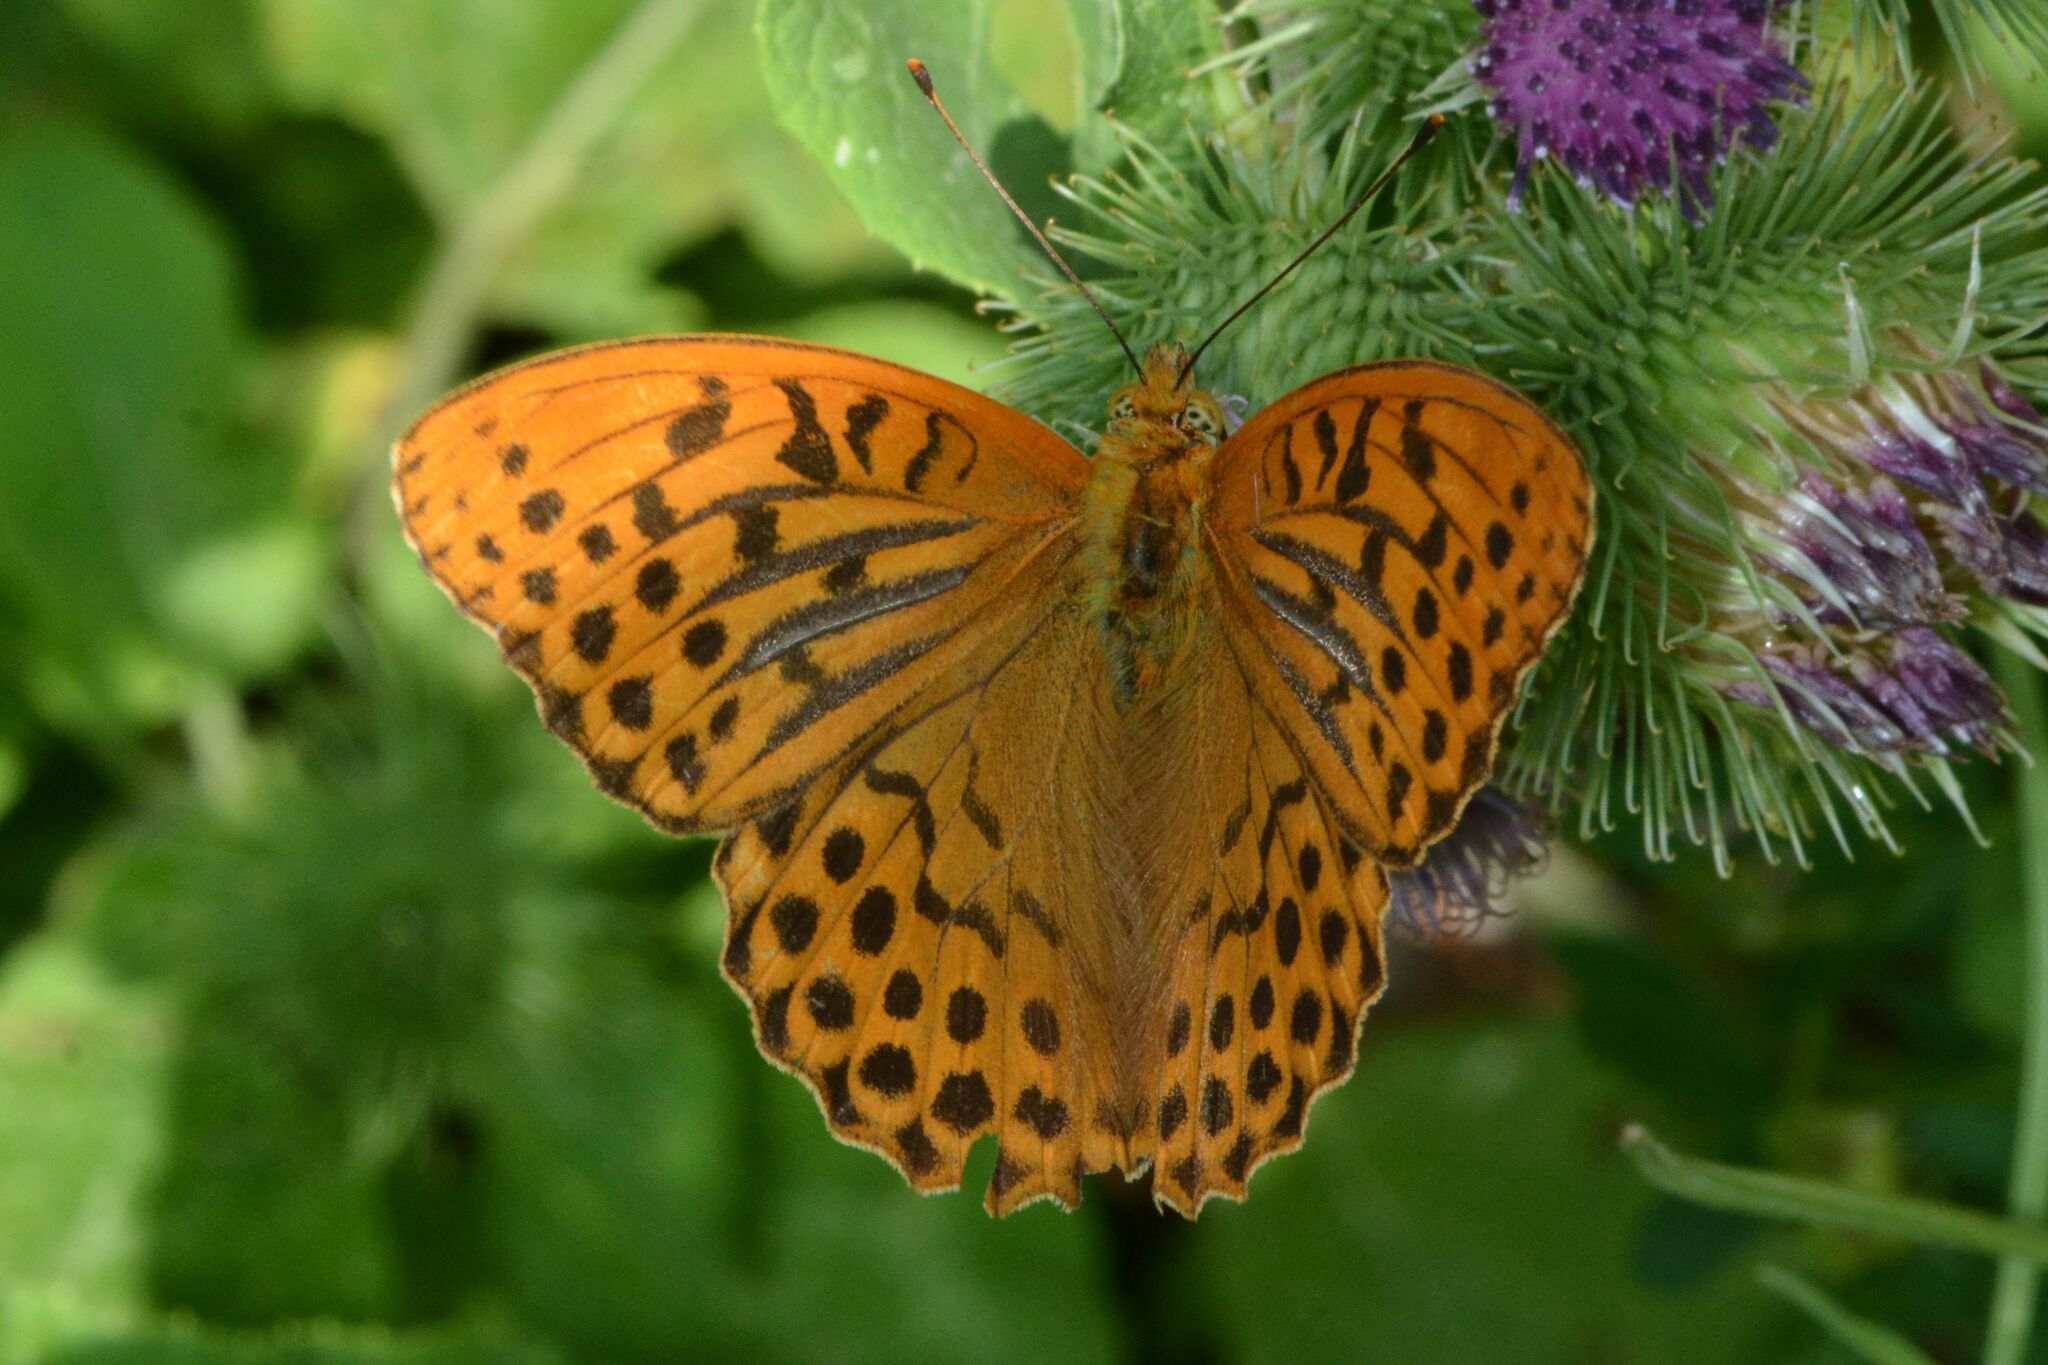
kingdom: Animalia
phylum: Arthropoda
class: Insecta
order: Lepidoptera
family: Nymphalidae
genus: Argynnis
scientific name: Argynnis paphia
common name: Silver-washed fritillary
